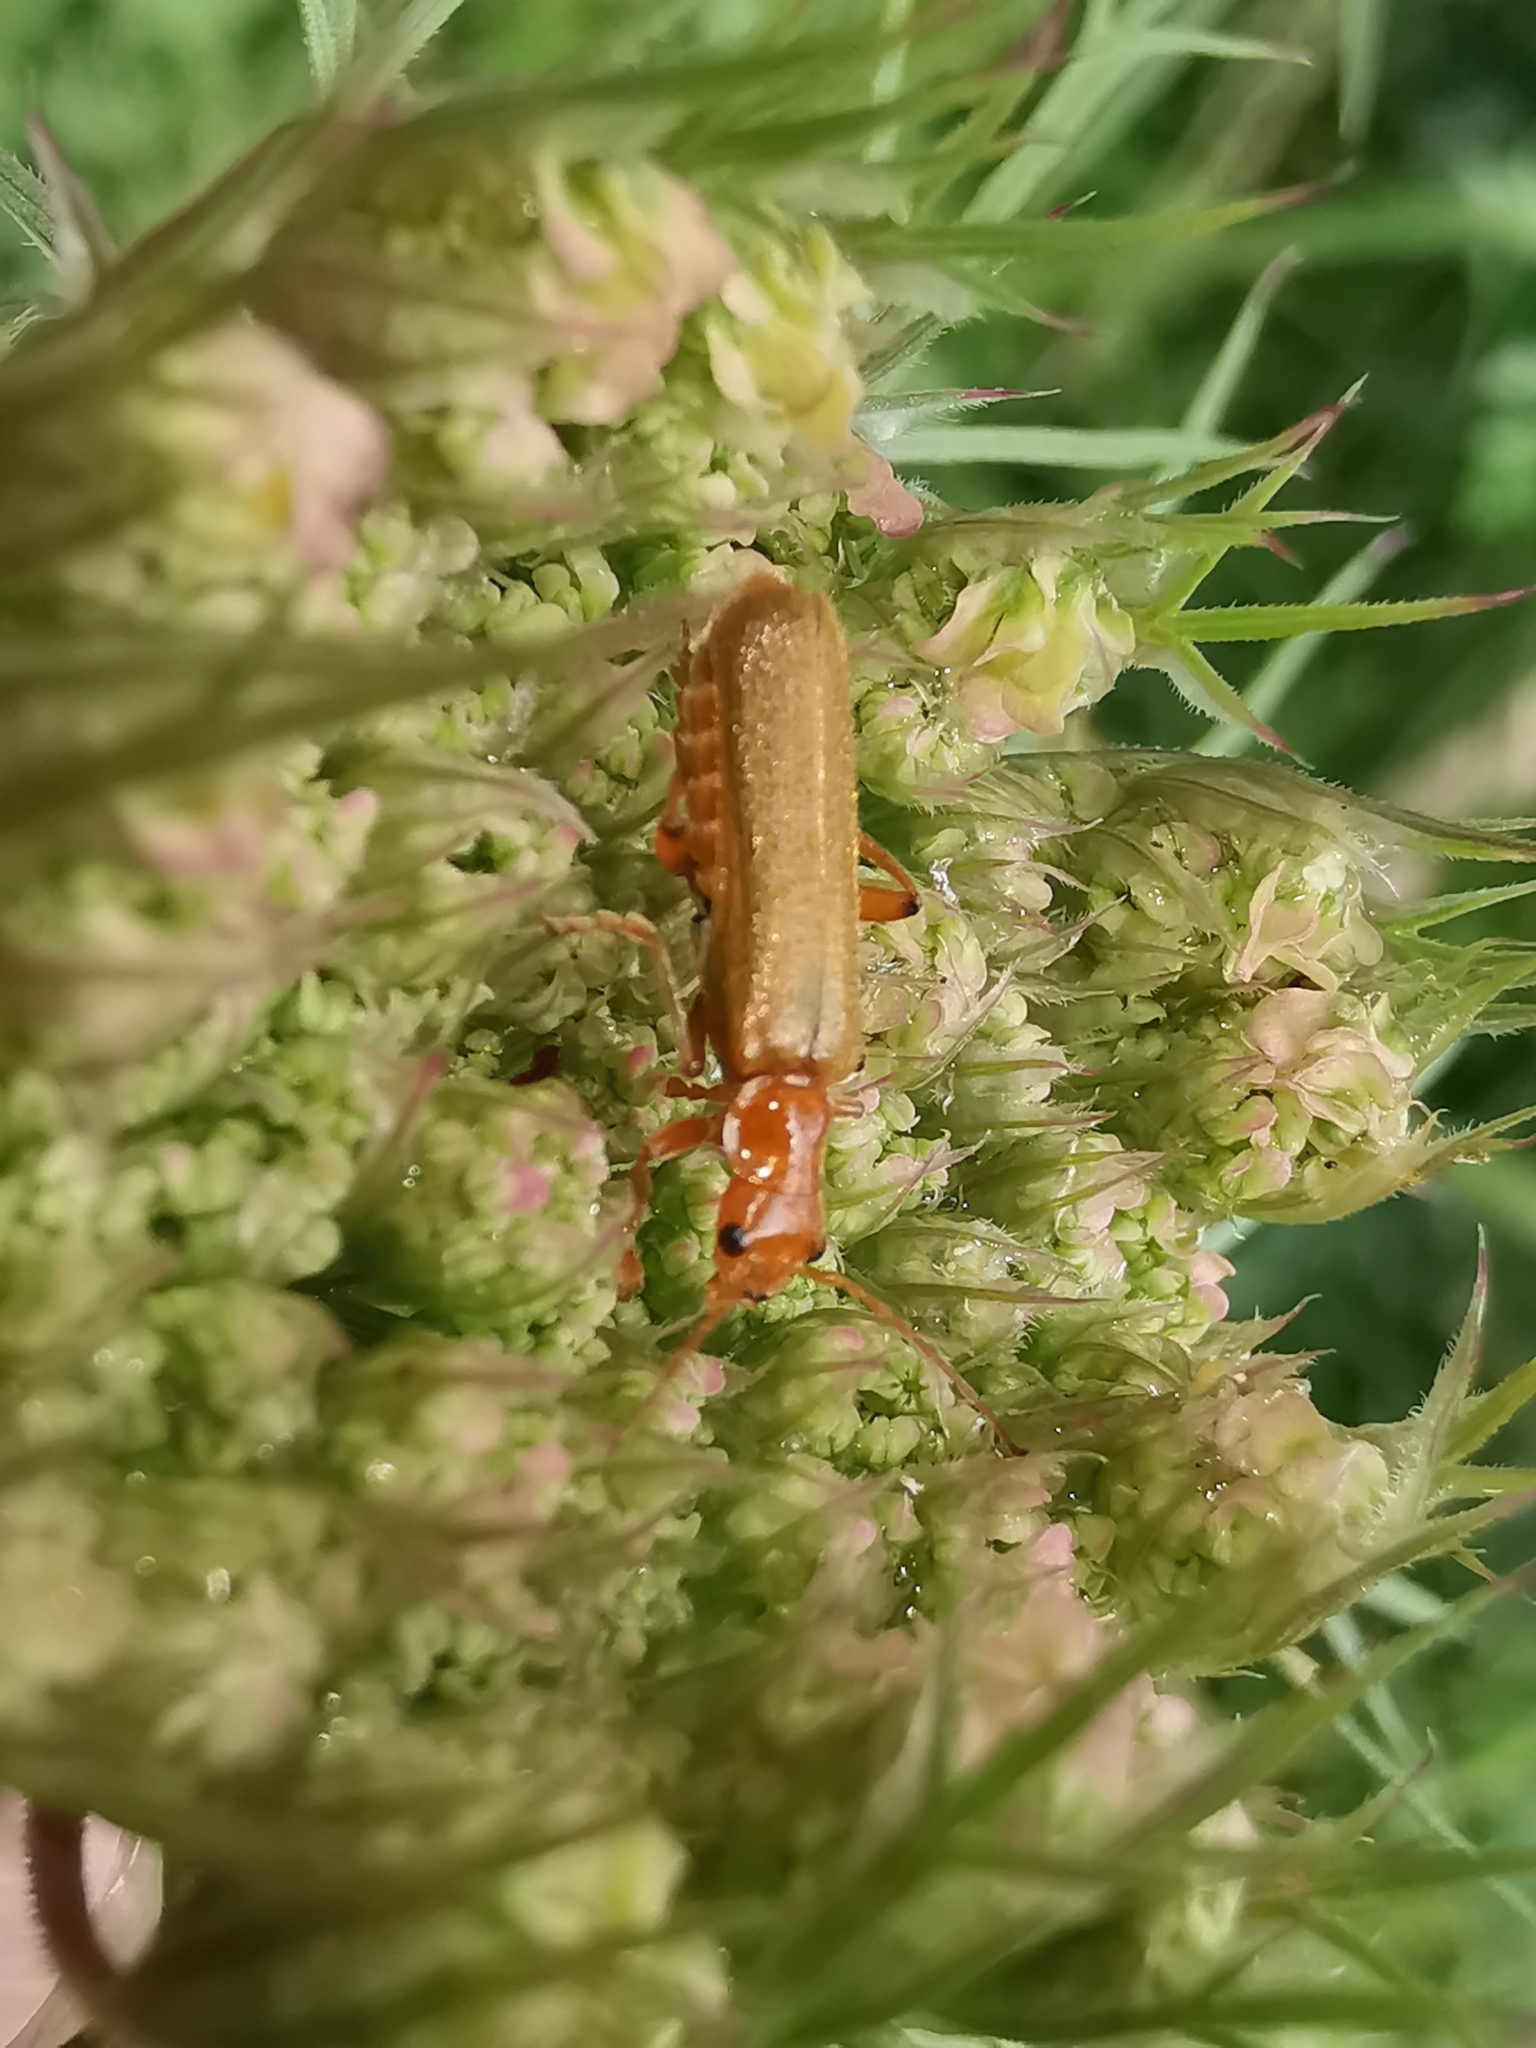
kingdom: Animalia
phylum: Arthropoda
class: Insecta
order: Coleoptera
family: Cantharidae
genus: Cantharis
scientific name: Cantharis pallida
